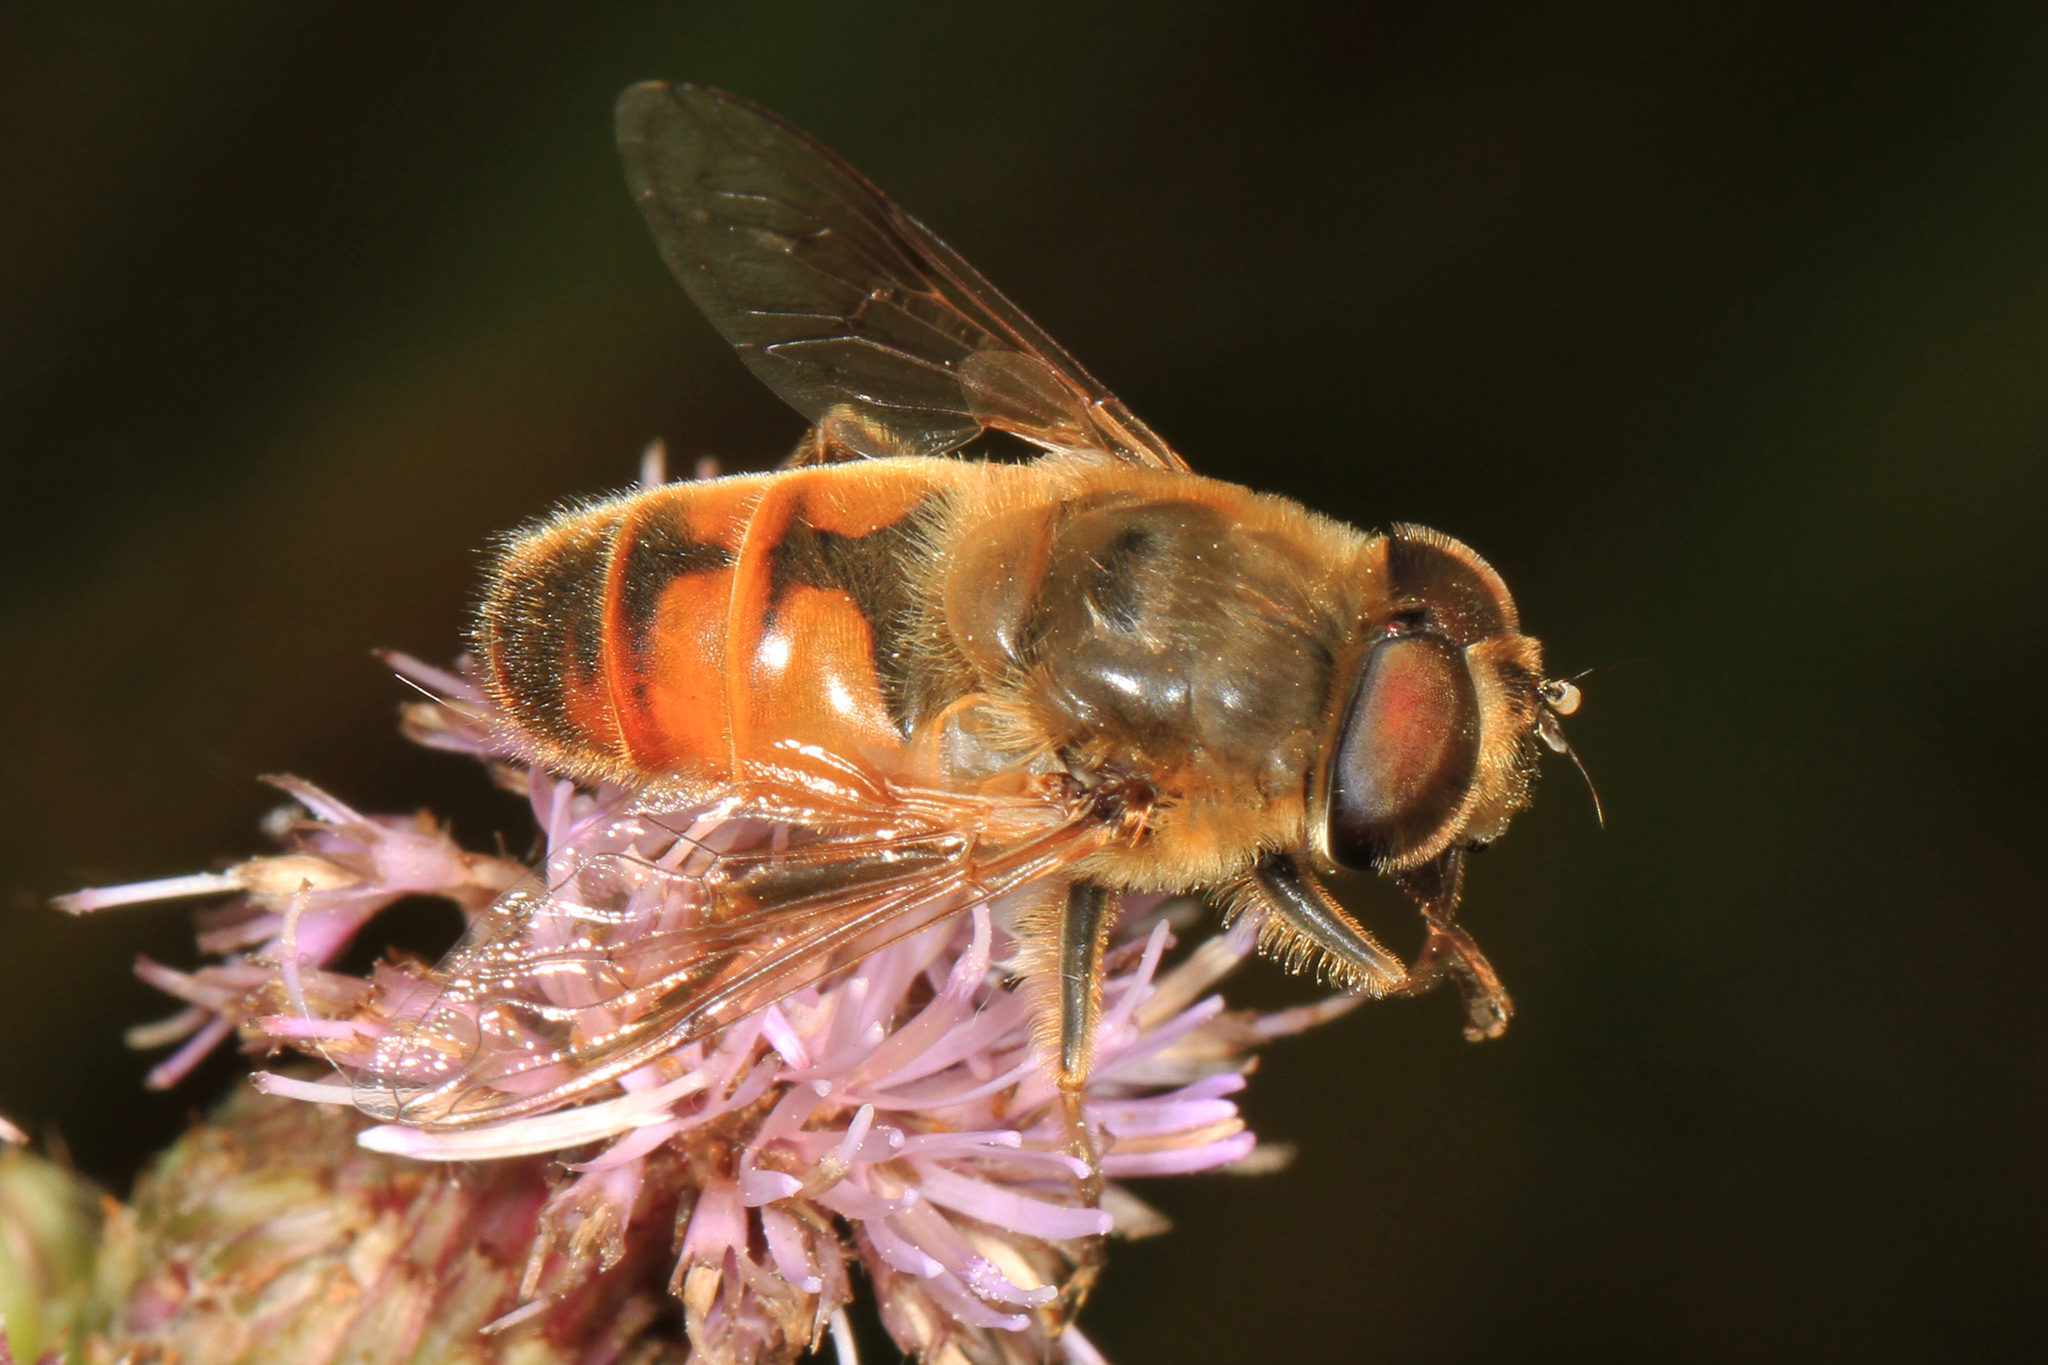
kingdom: Animalia
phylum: Arthropoda
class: Insecta
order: Diptera
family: Syrphidae
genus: Eristalis
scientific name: Eristalis tenax
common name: Drone fly
